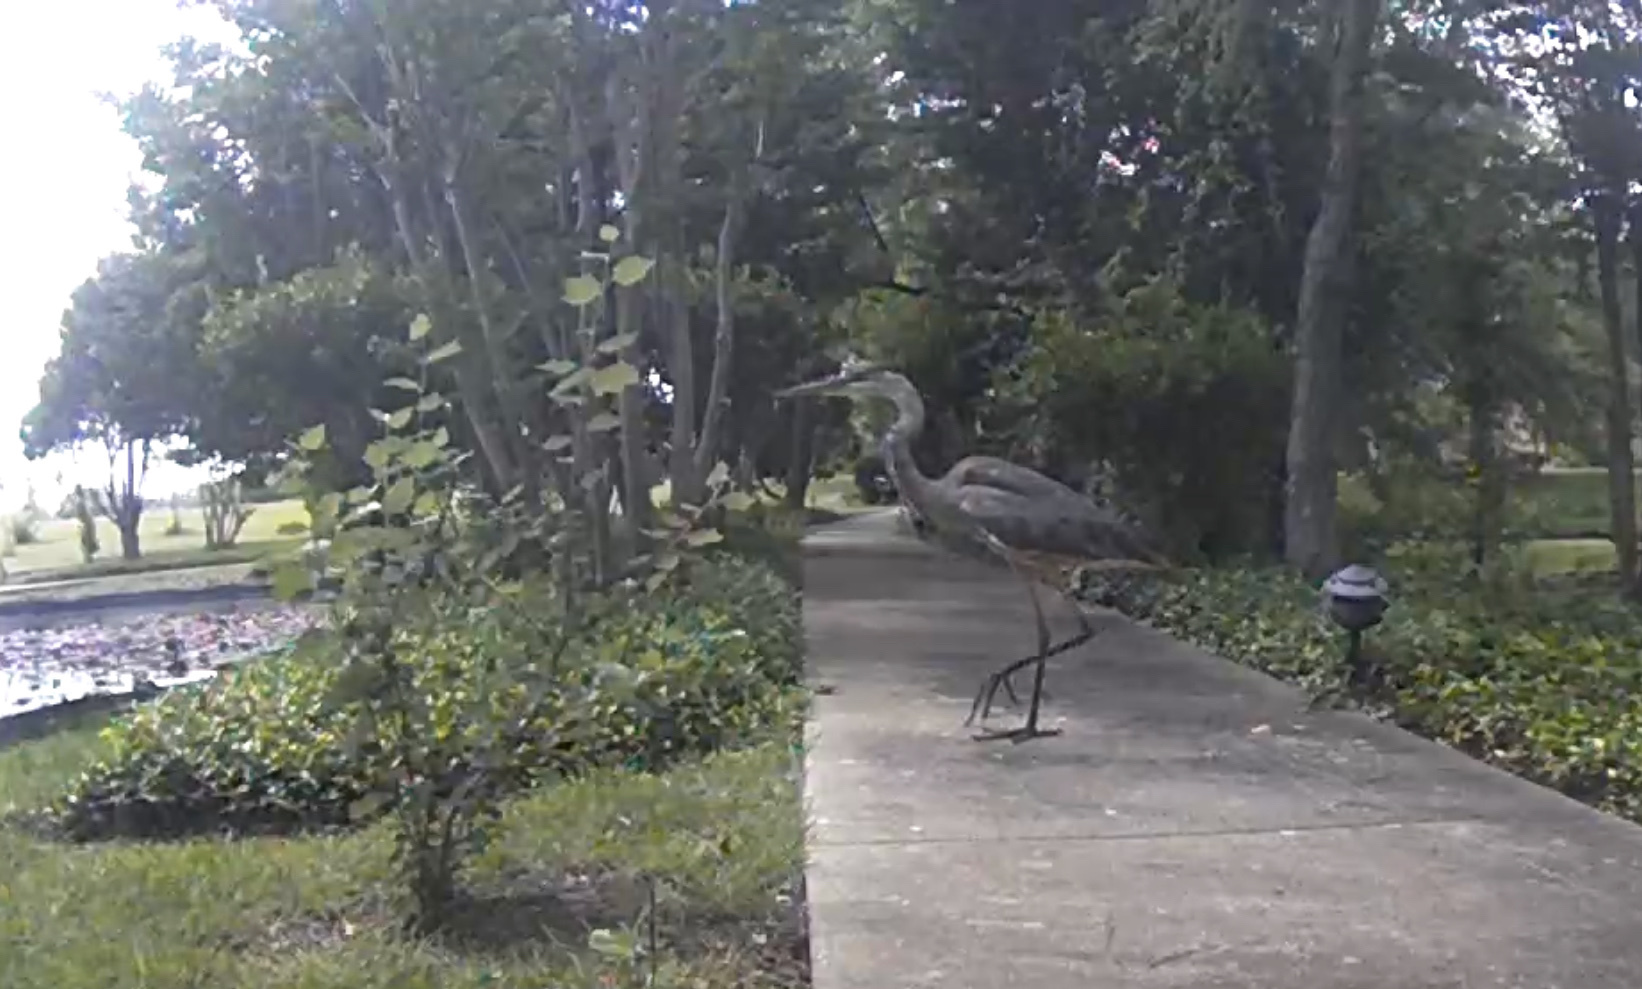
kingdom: Animalia
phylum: Chordata
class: Aves
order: Pelecaniformes
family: Ardeidae
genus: Ardea
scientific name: Ardea herodias
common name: Great blue heron
